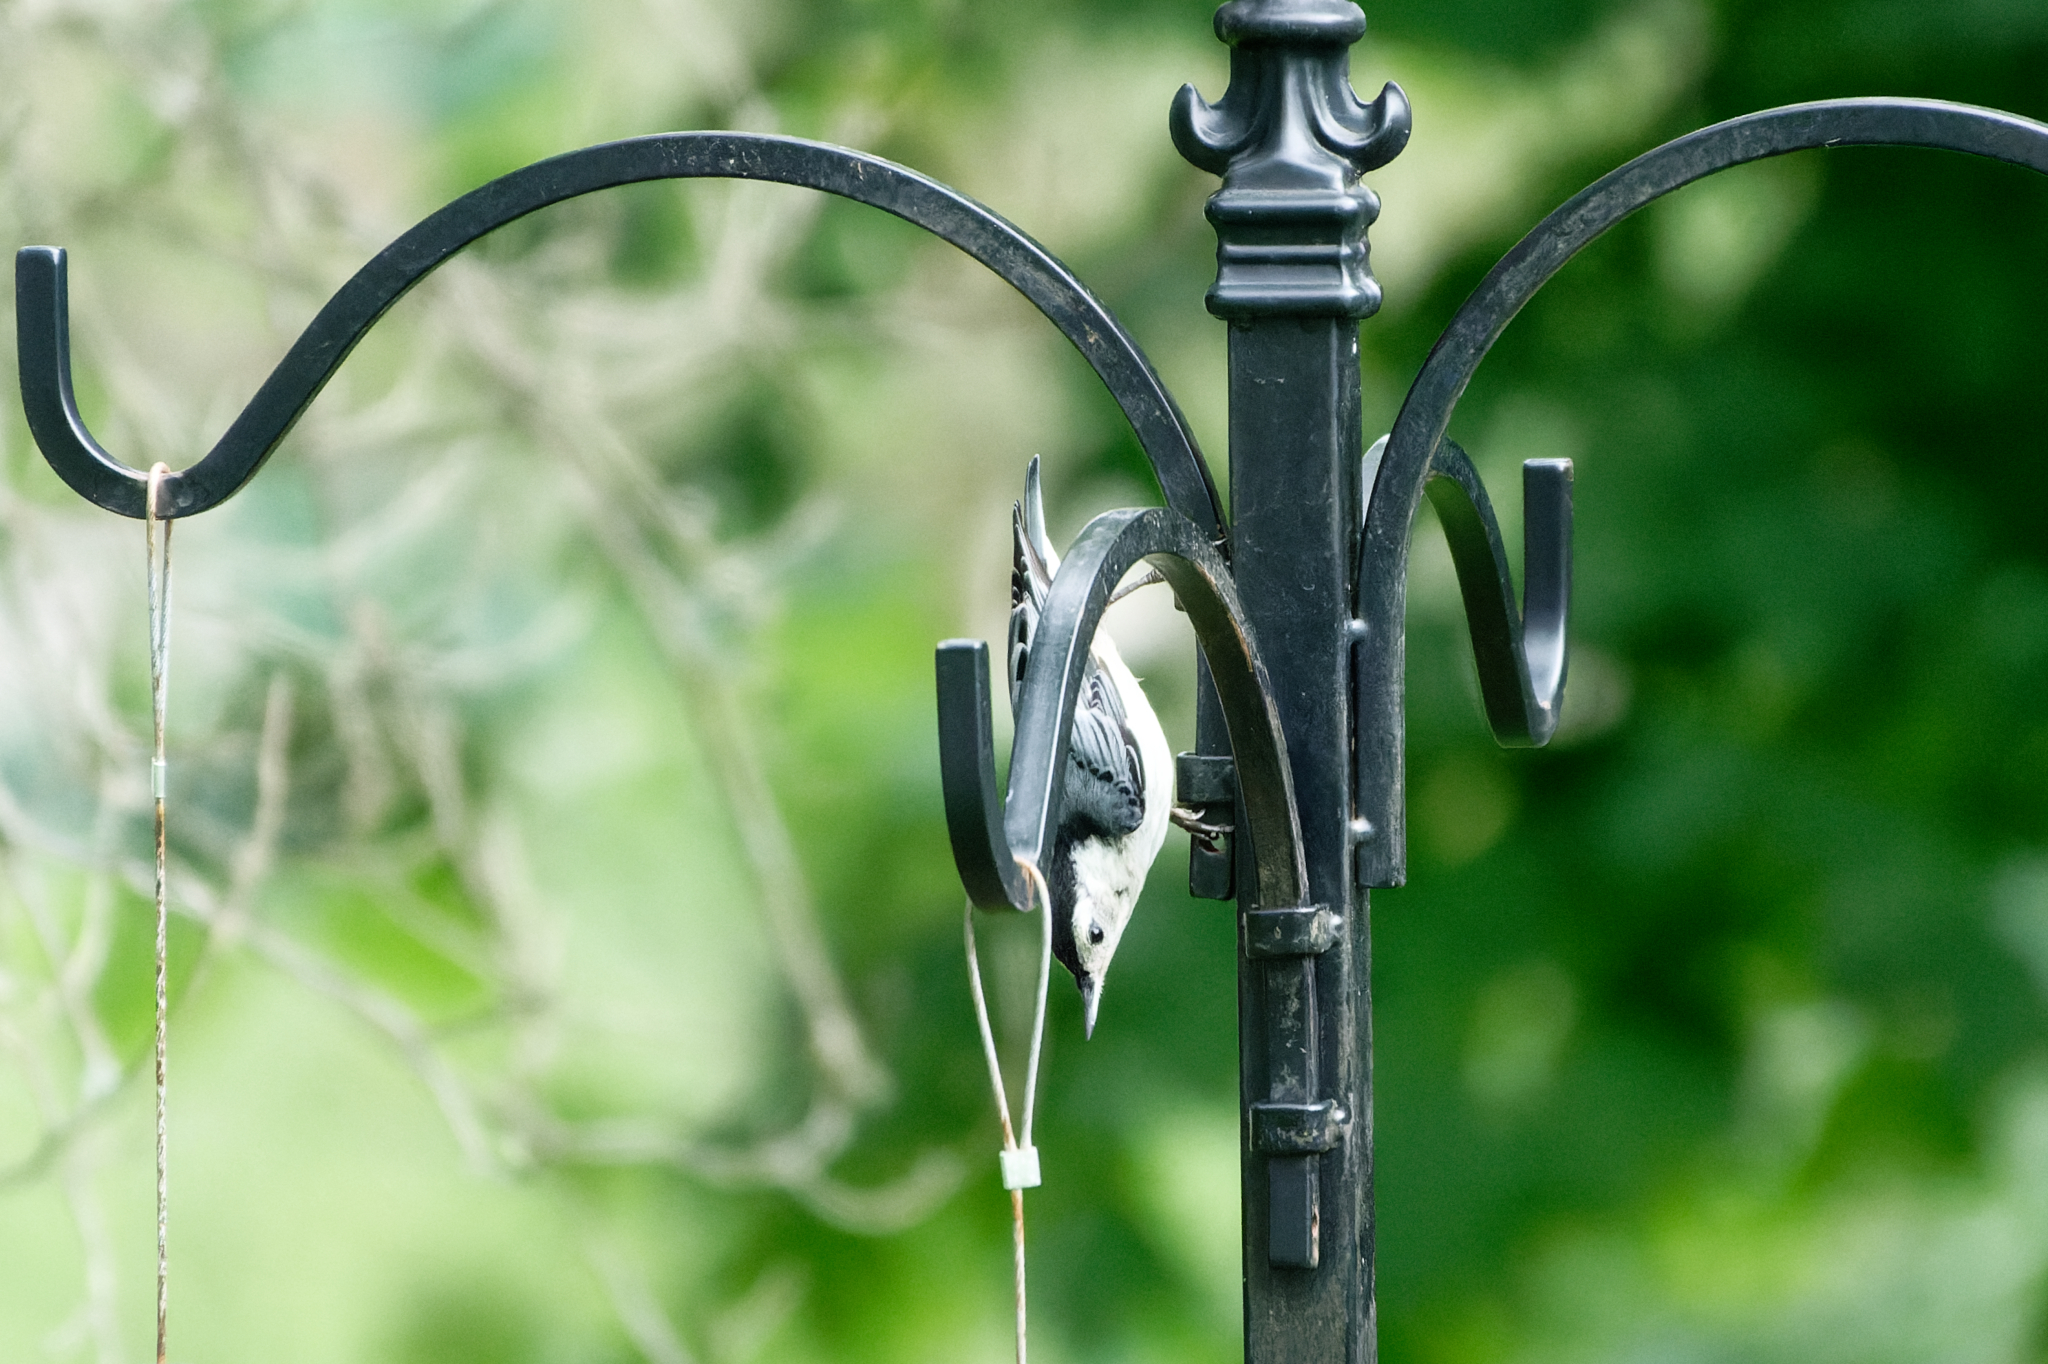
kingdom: Animalia
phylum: Chordata
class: Aves
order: Passeriformes
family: Sittidae
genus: Sitta
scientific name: Sitta carolinensis
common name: White-breasted nuthatch
